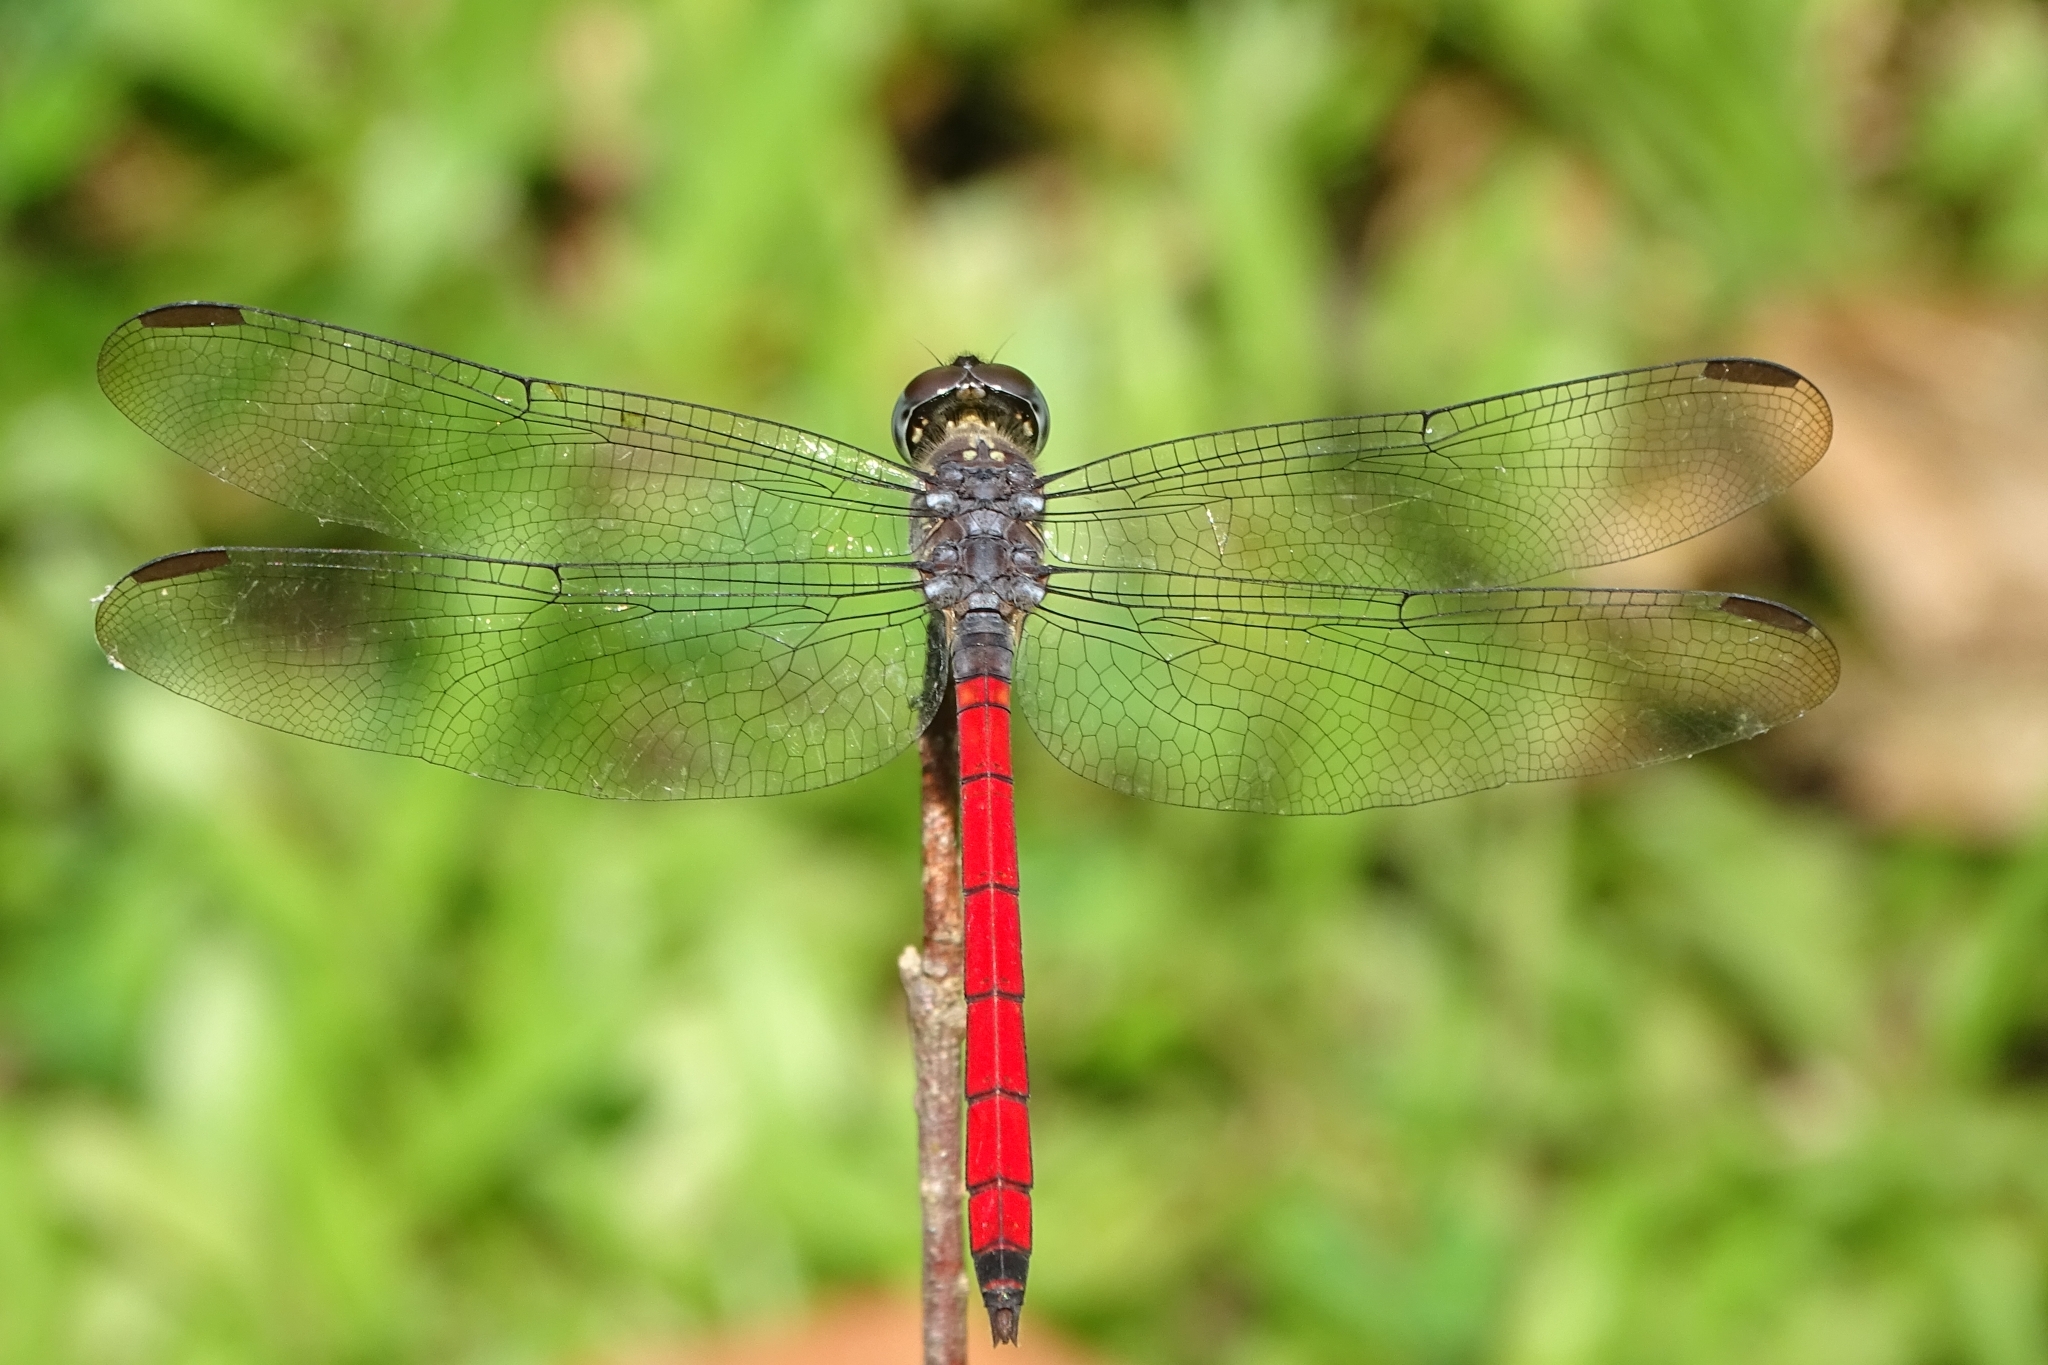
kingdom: Animalia
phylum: Arthropoda
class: Insecta
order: Odonata
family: Libellulidae
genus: Lathrecista
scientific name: Lathrecista asiatica
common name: Scarlet grenadier
